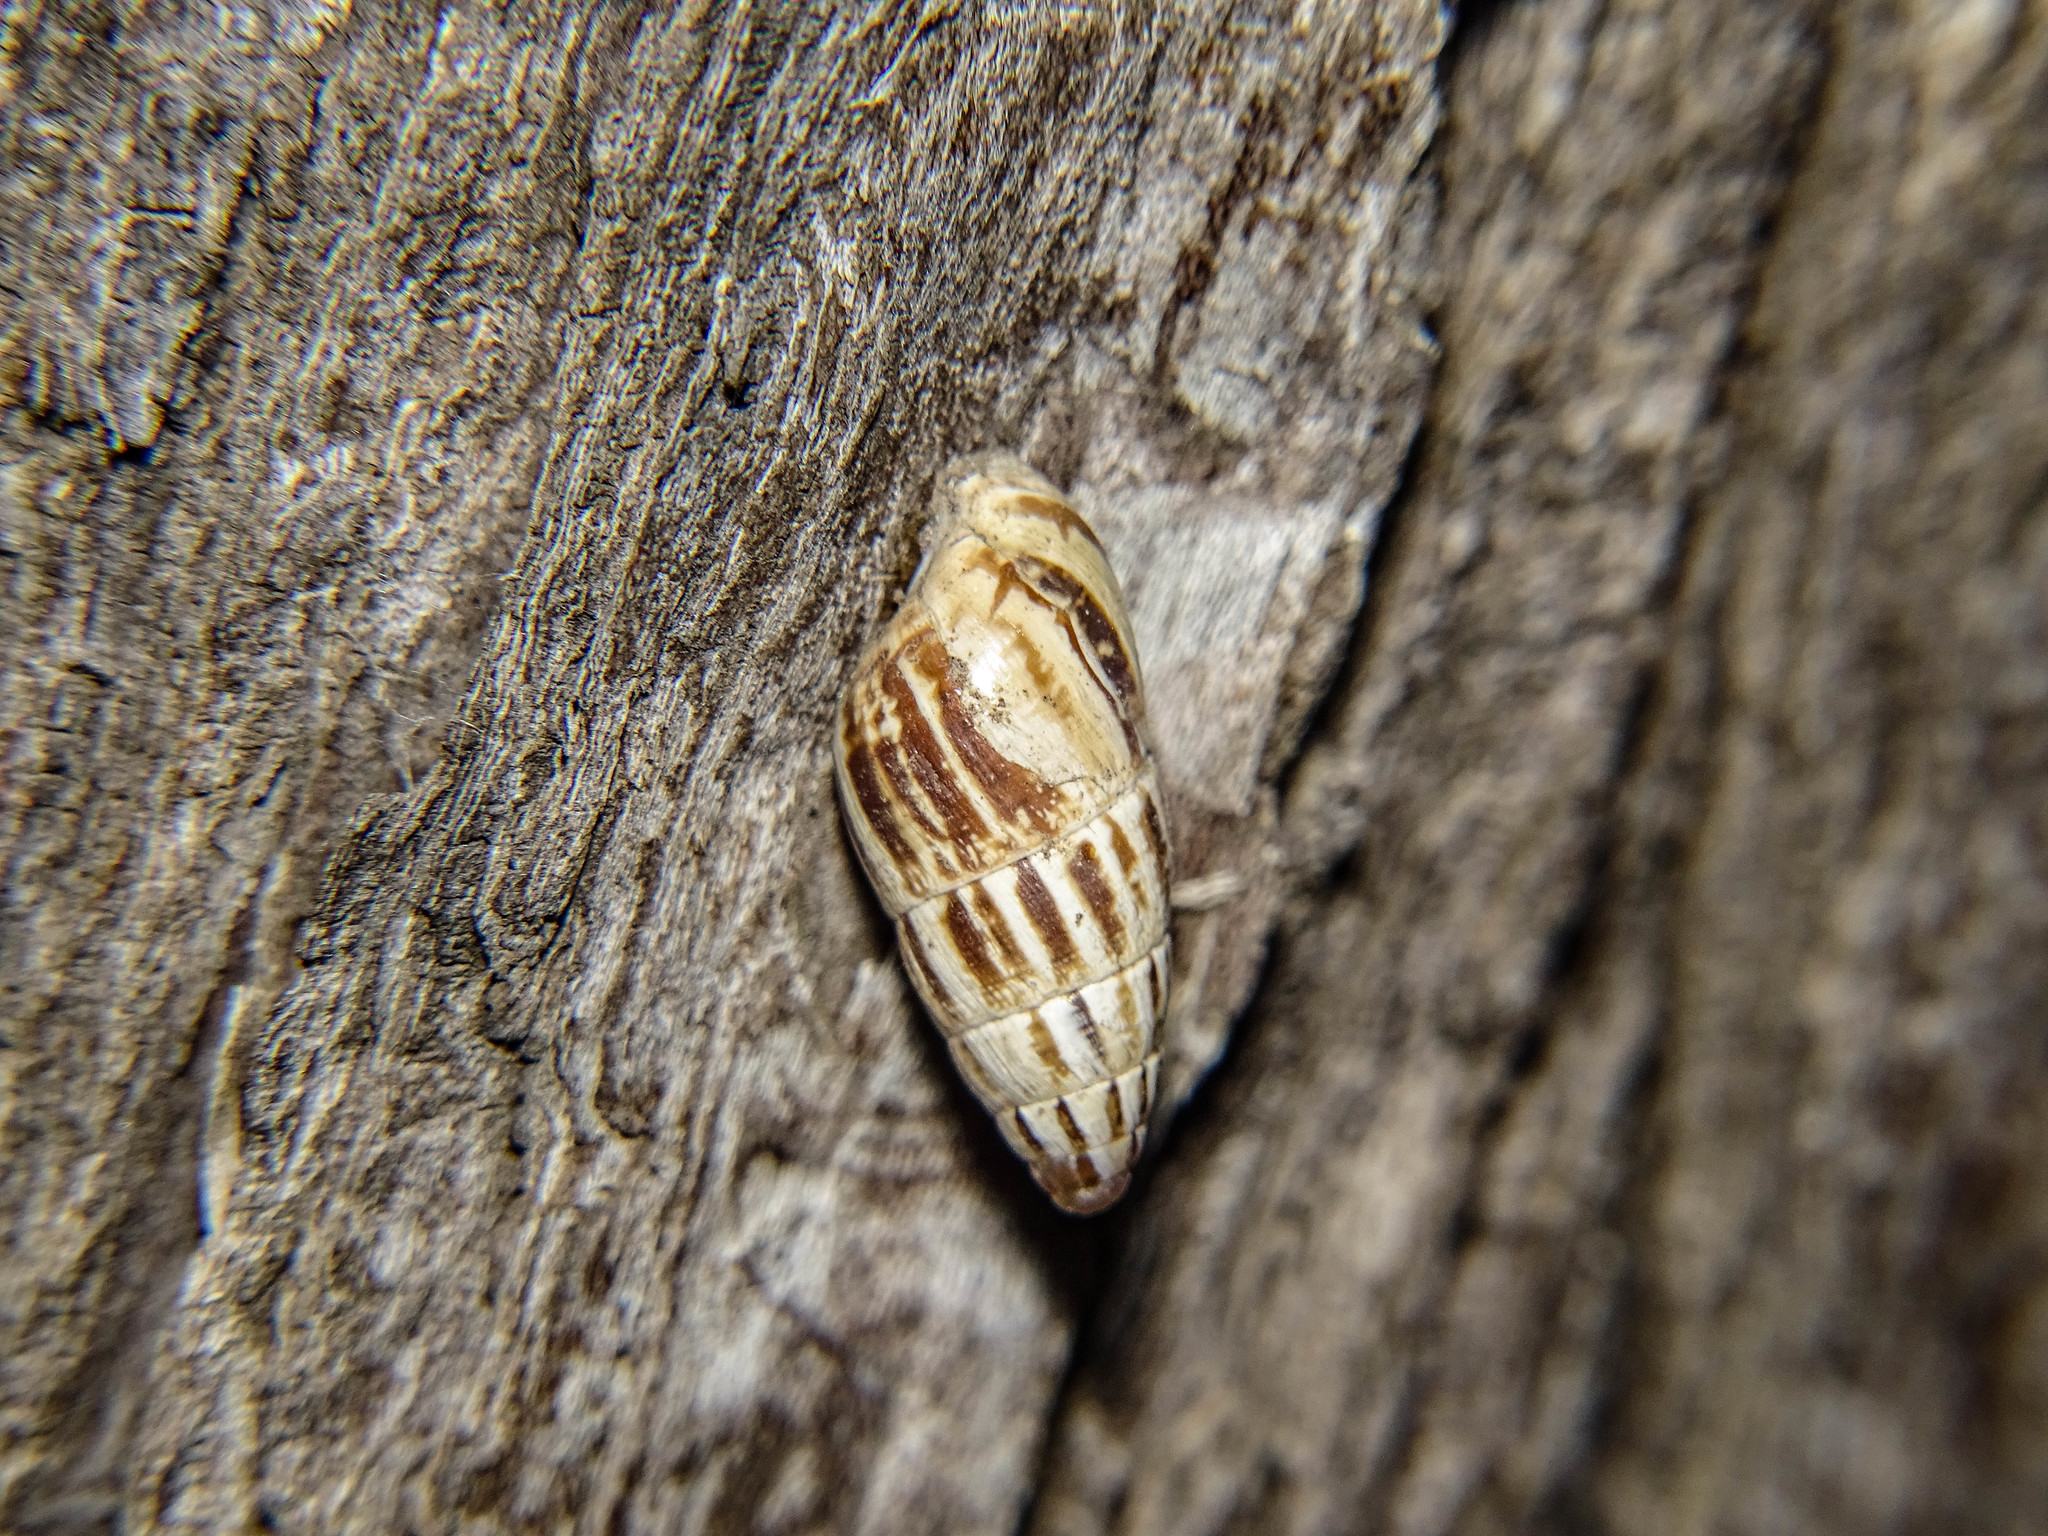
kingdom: Animalia
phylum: Mollusca
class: Gastropoda
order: Stylommatophora
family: Enidae
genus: Zebrina
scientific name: Zebrina fasciolata
